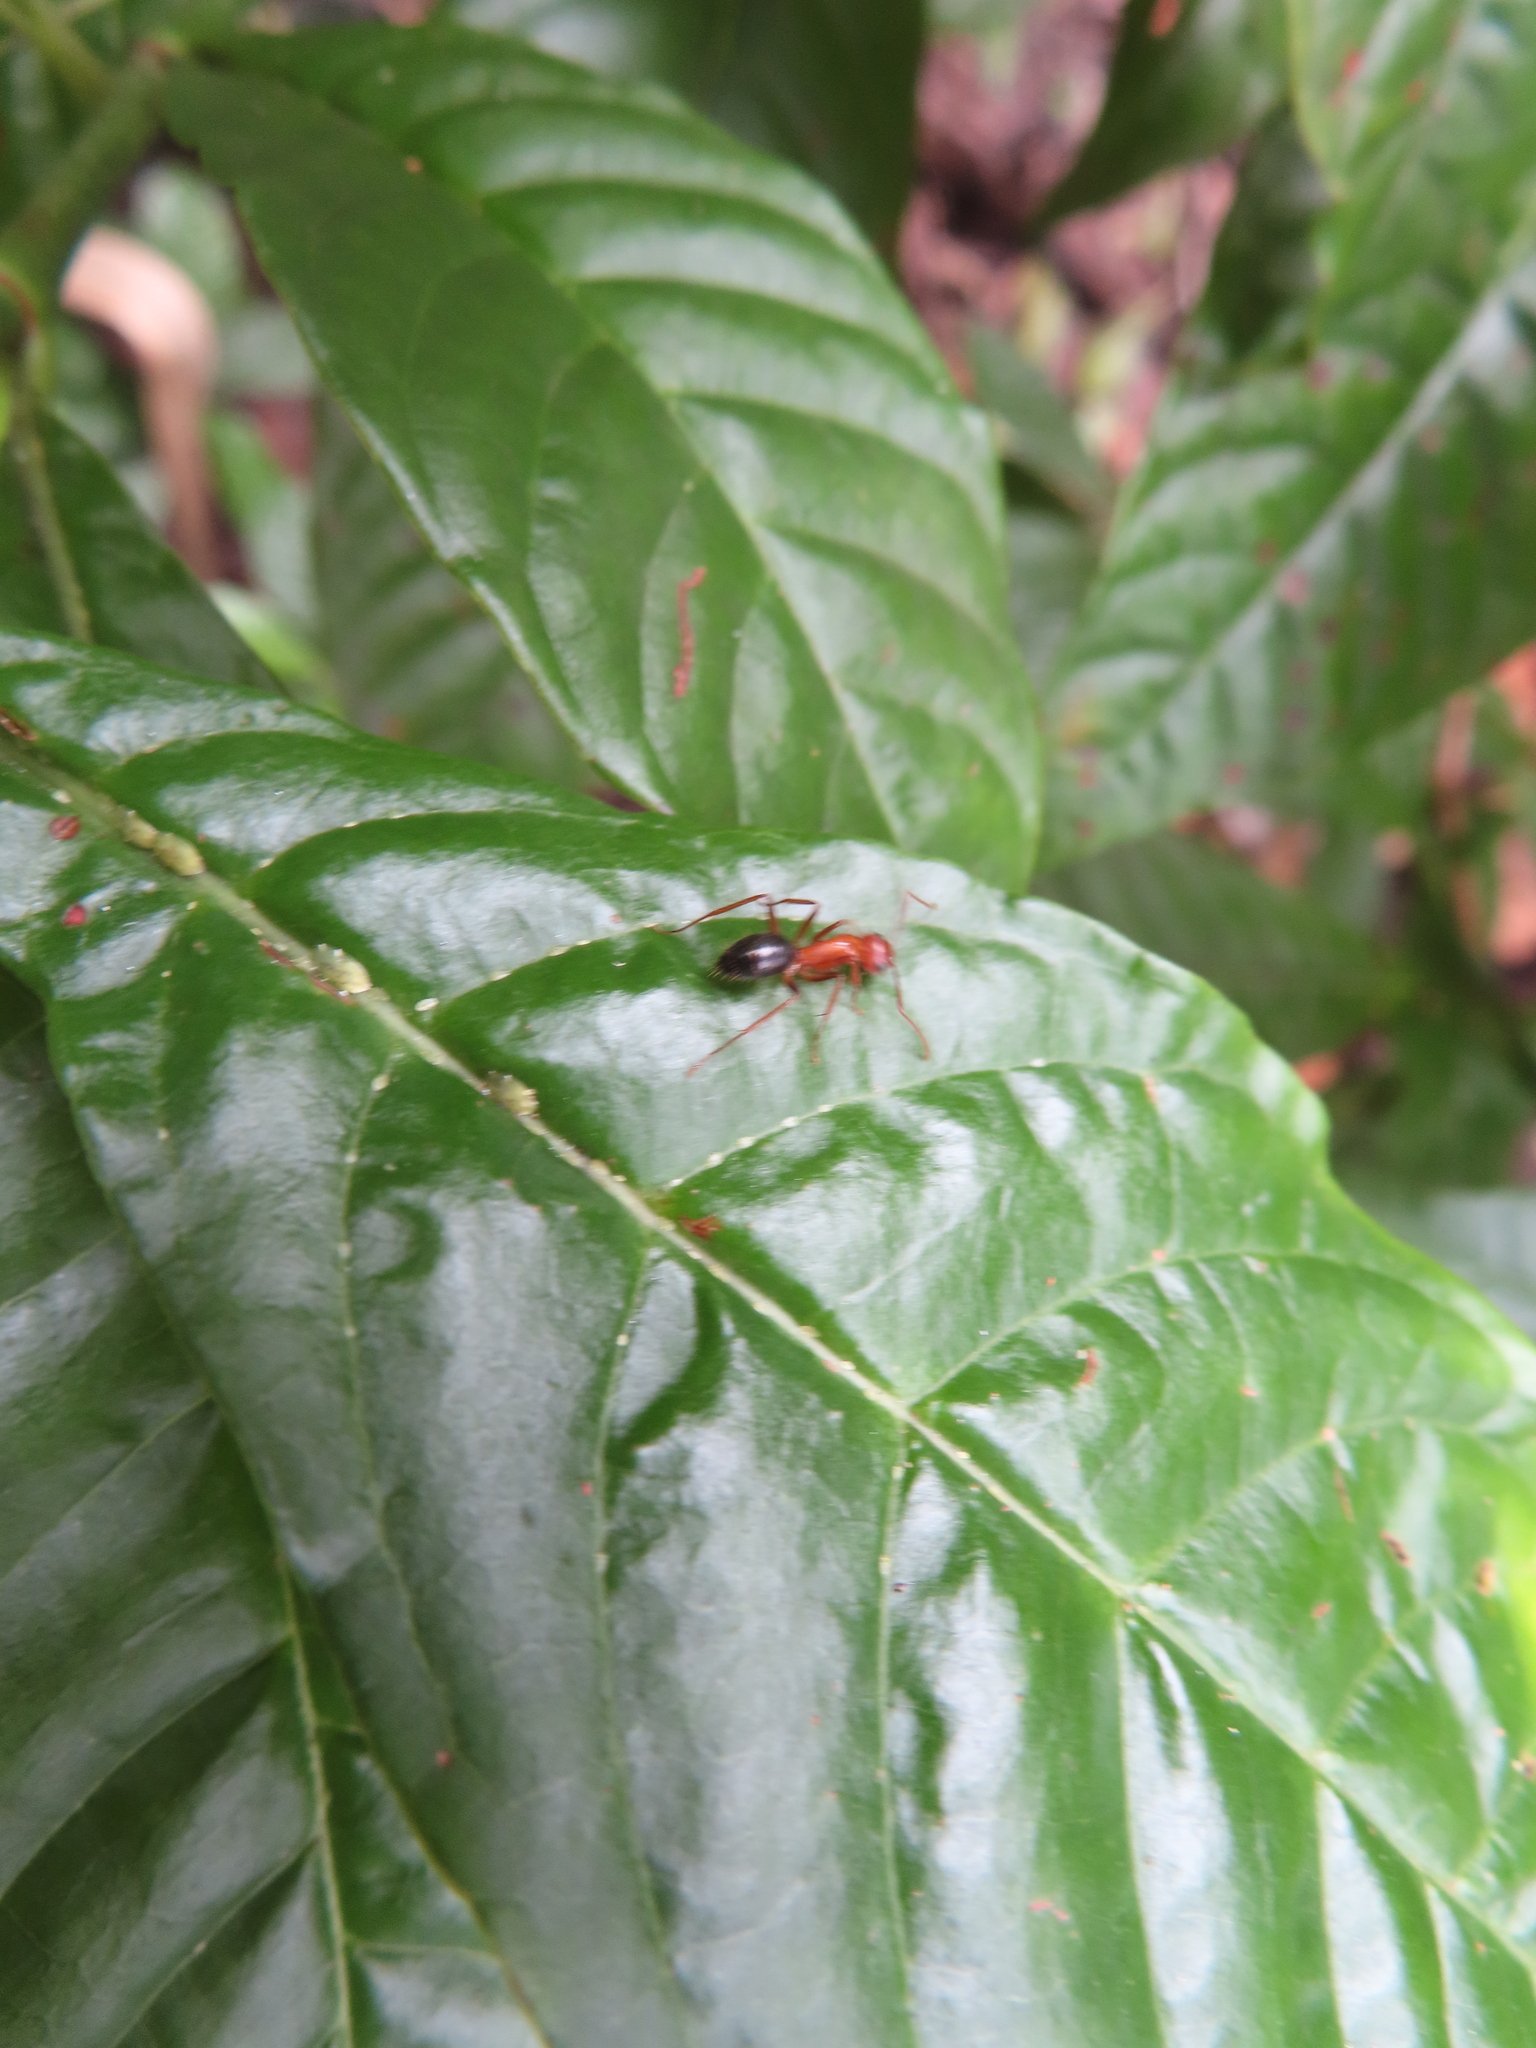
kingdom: Animalia
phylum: Arthropoda
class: Insecta
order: Hymenoptera
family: Formicidae
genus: Camponotus
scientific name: Camponotus floridanus
